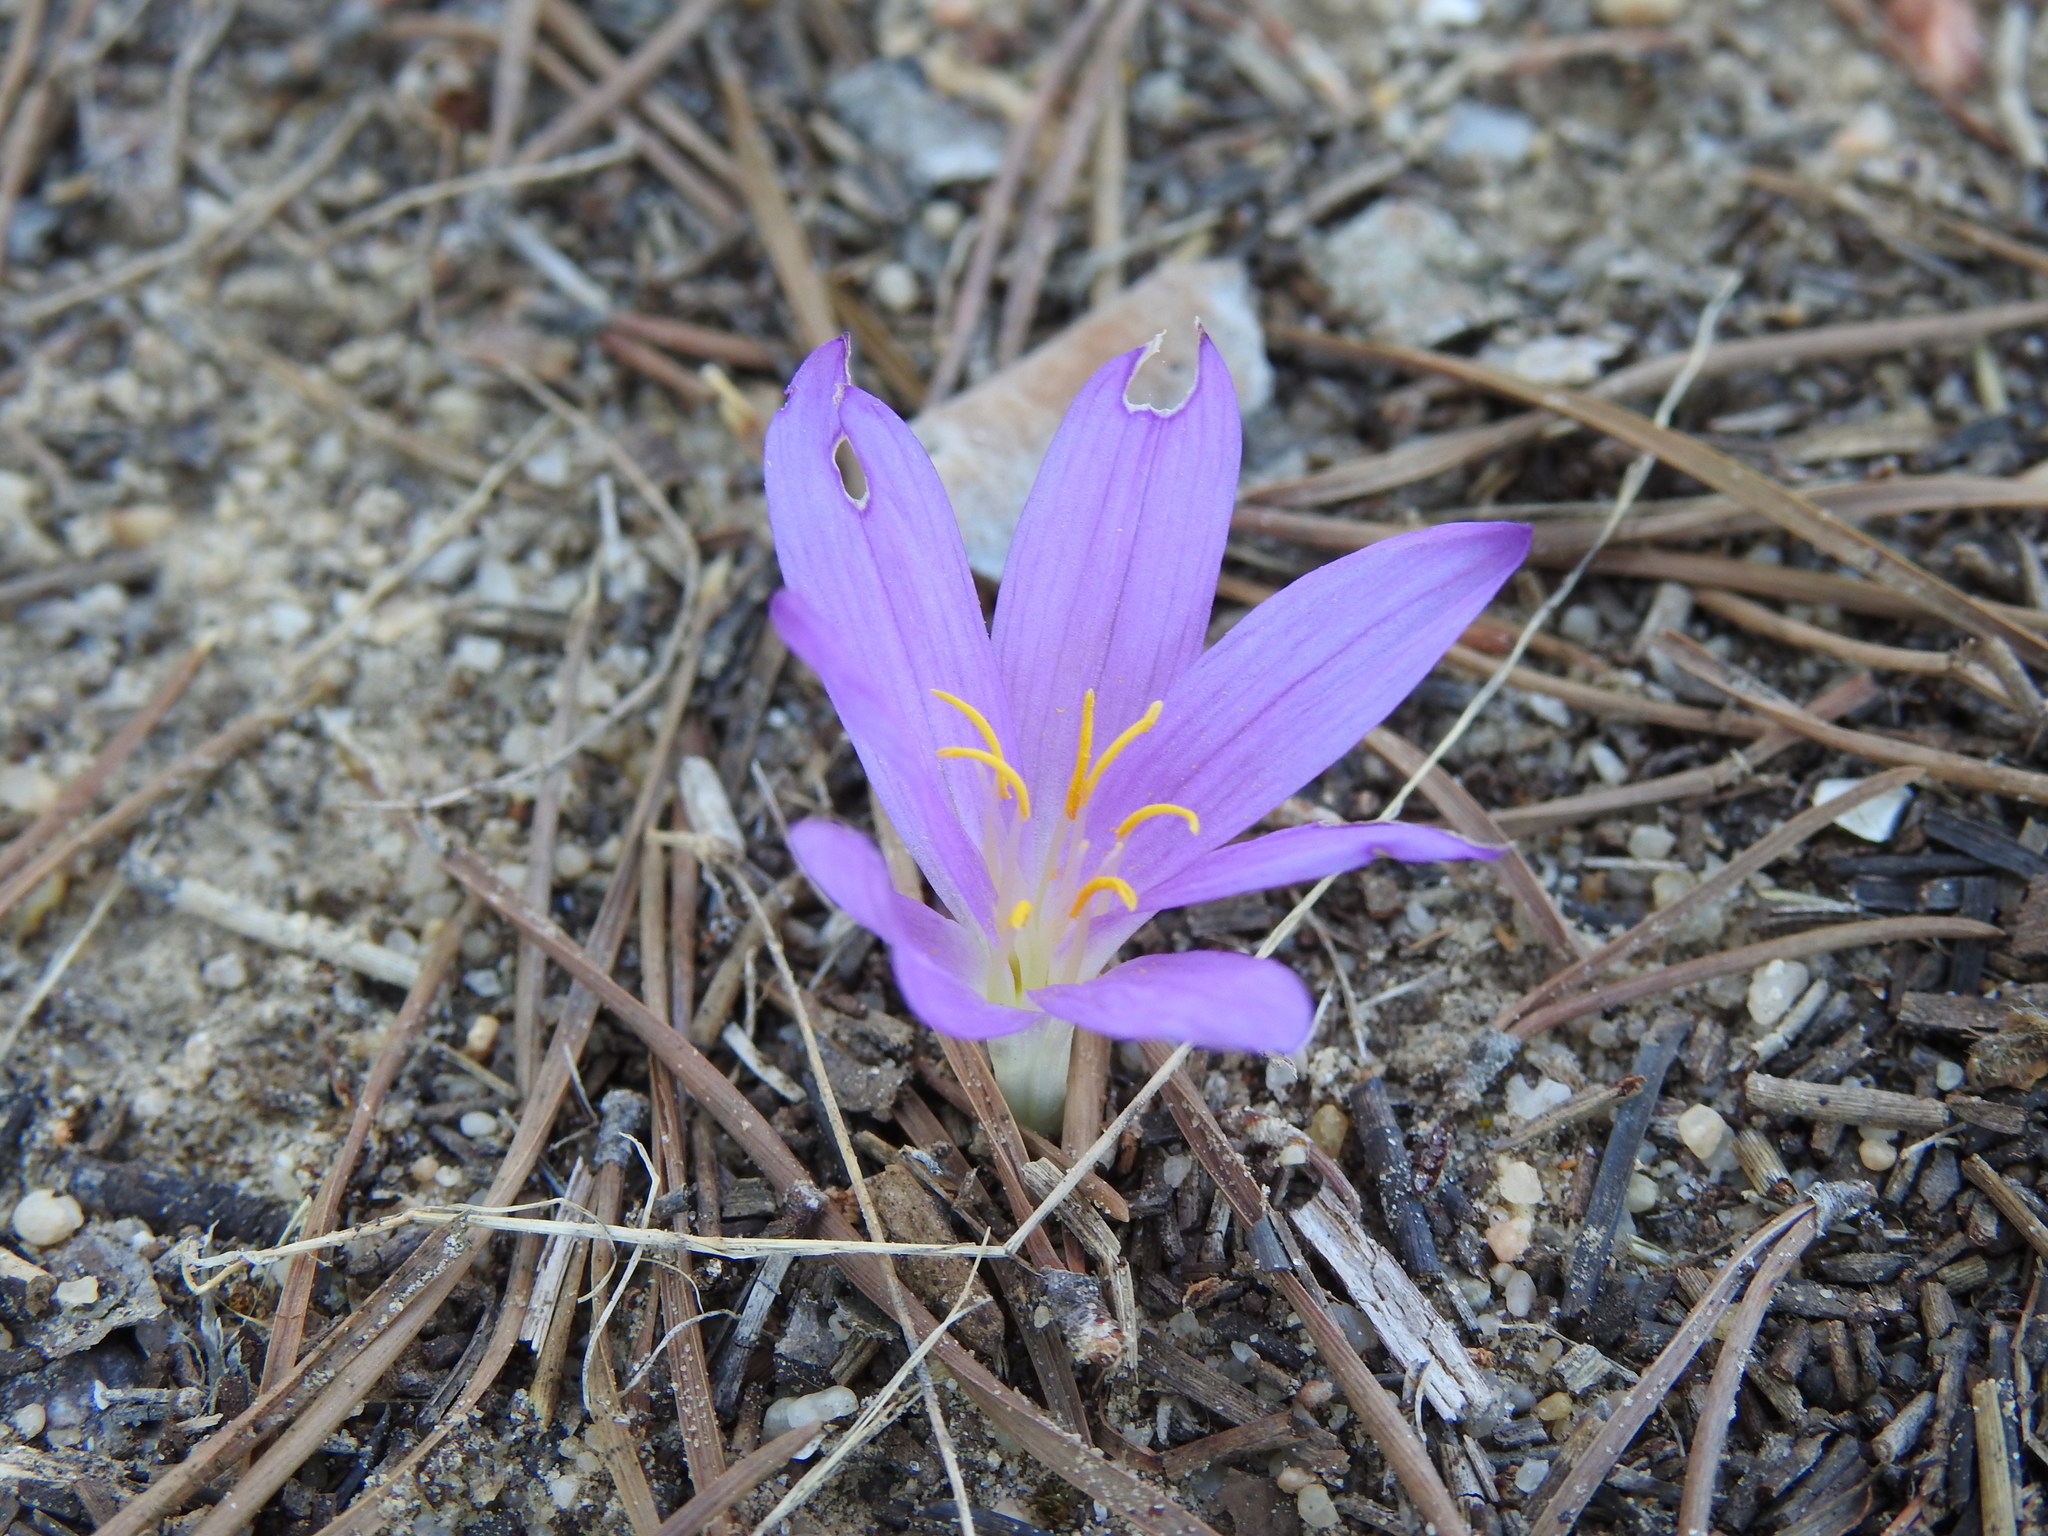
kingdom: Plantae
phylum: Tracheophyta
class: Liliopsida
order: Liliales
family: Colchicaceae
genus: Colchicum
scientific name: Colchicum filifolium
